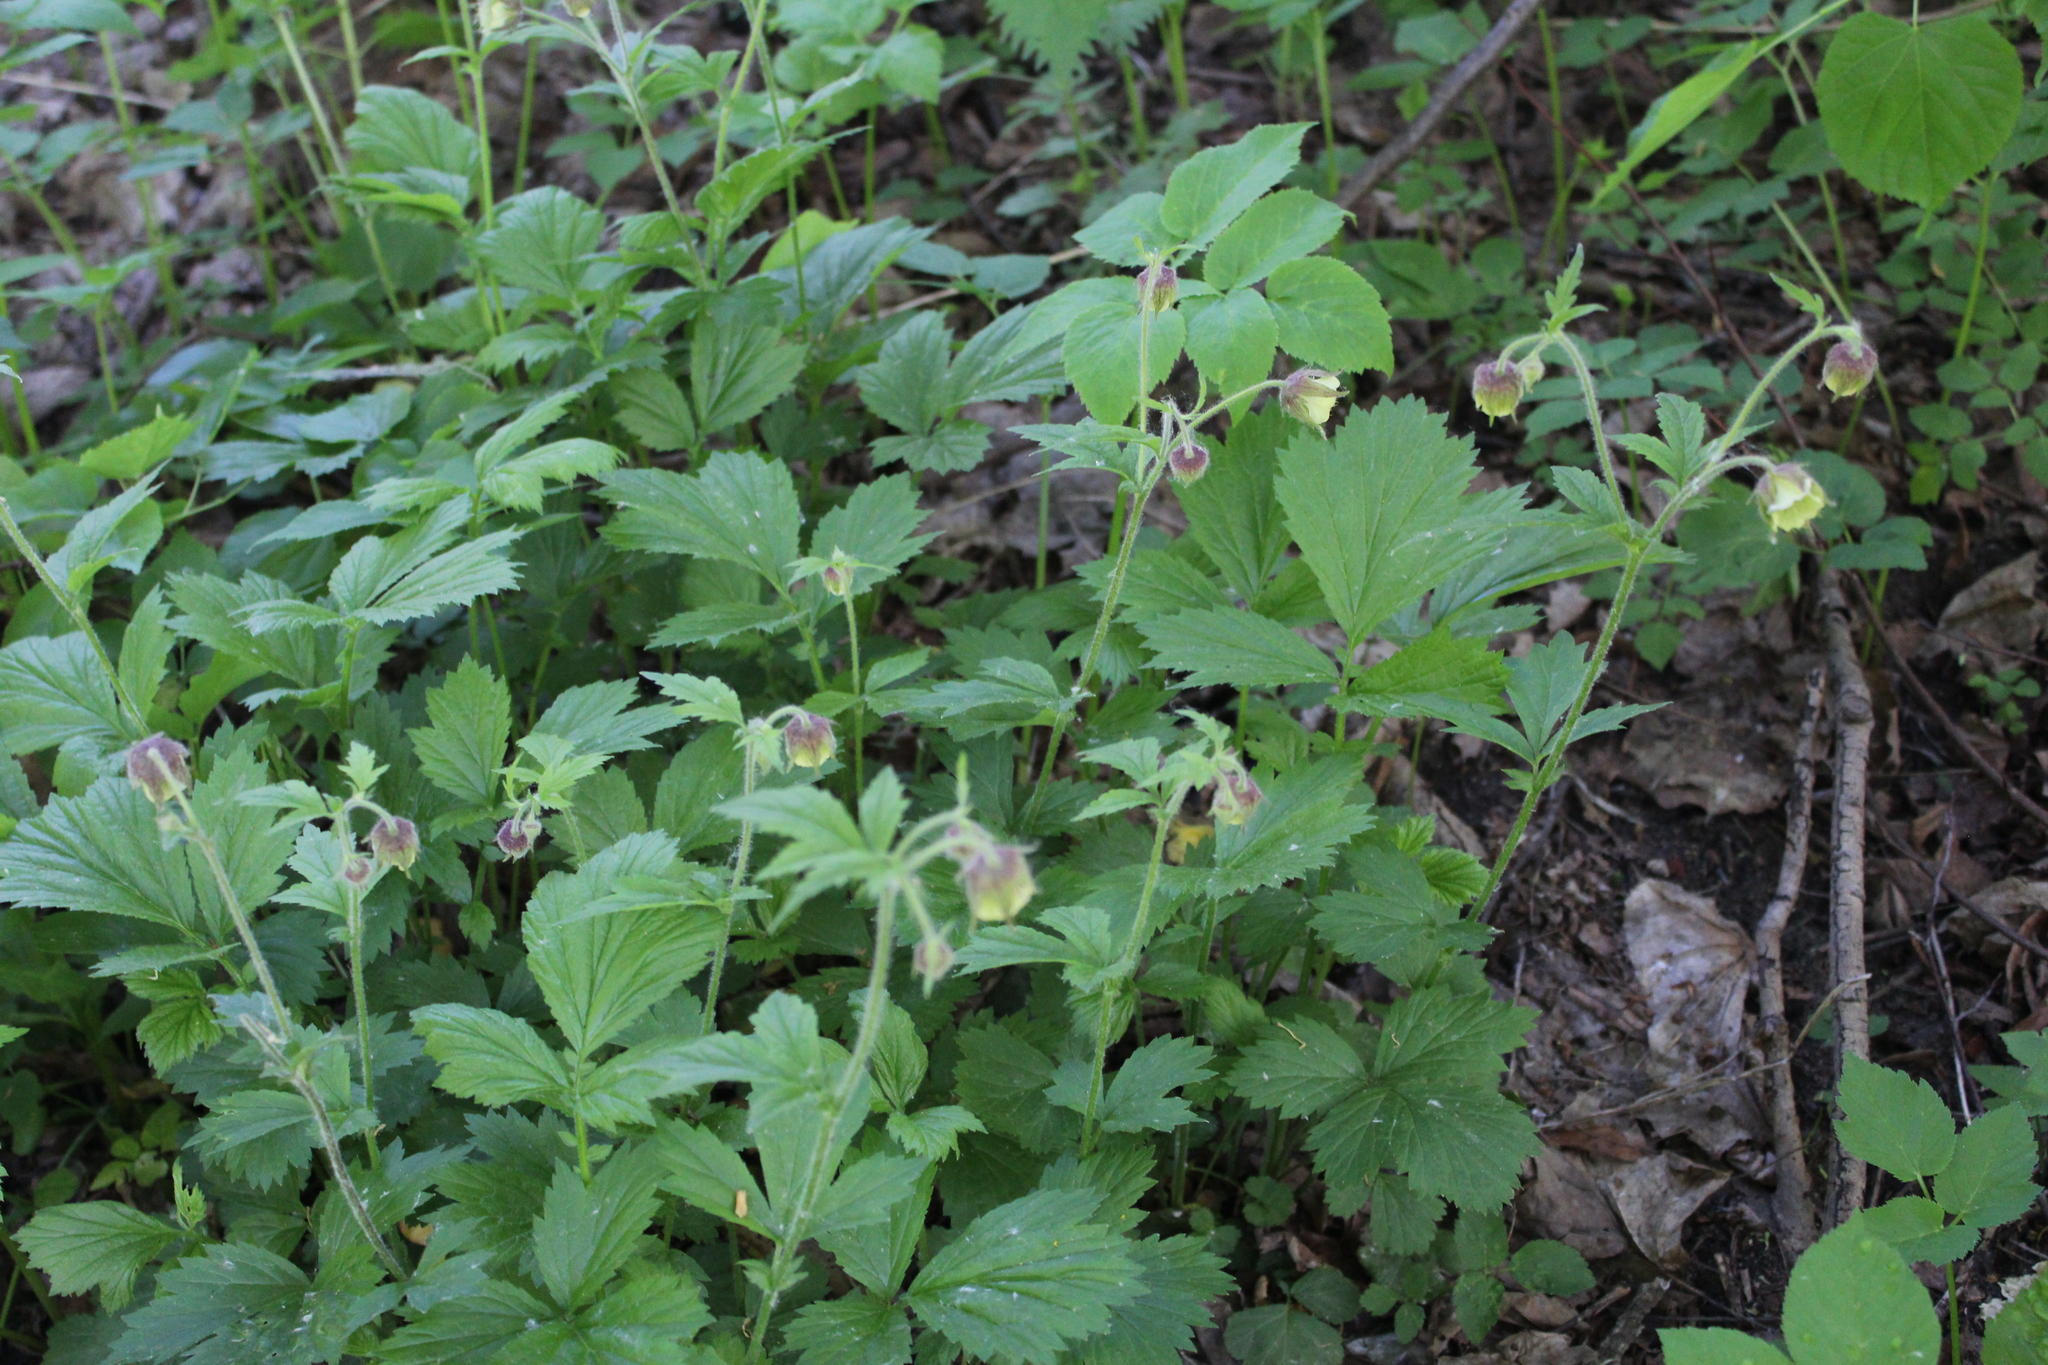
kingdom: Plantae
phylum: Tracheophyta
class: Magnoliopsida
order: Rosales
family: Rosaceae
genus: Geum
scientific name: Geum rivale
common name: Water avens
